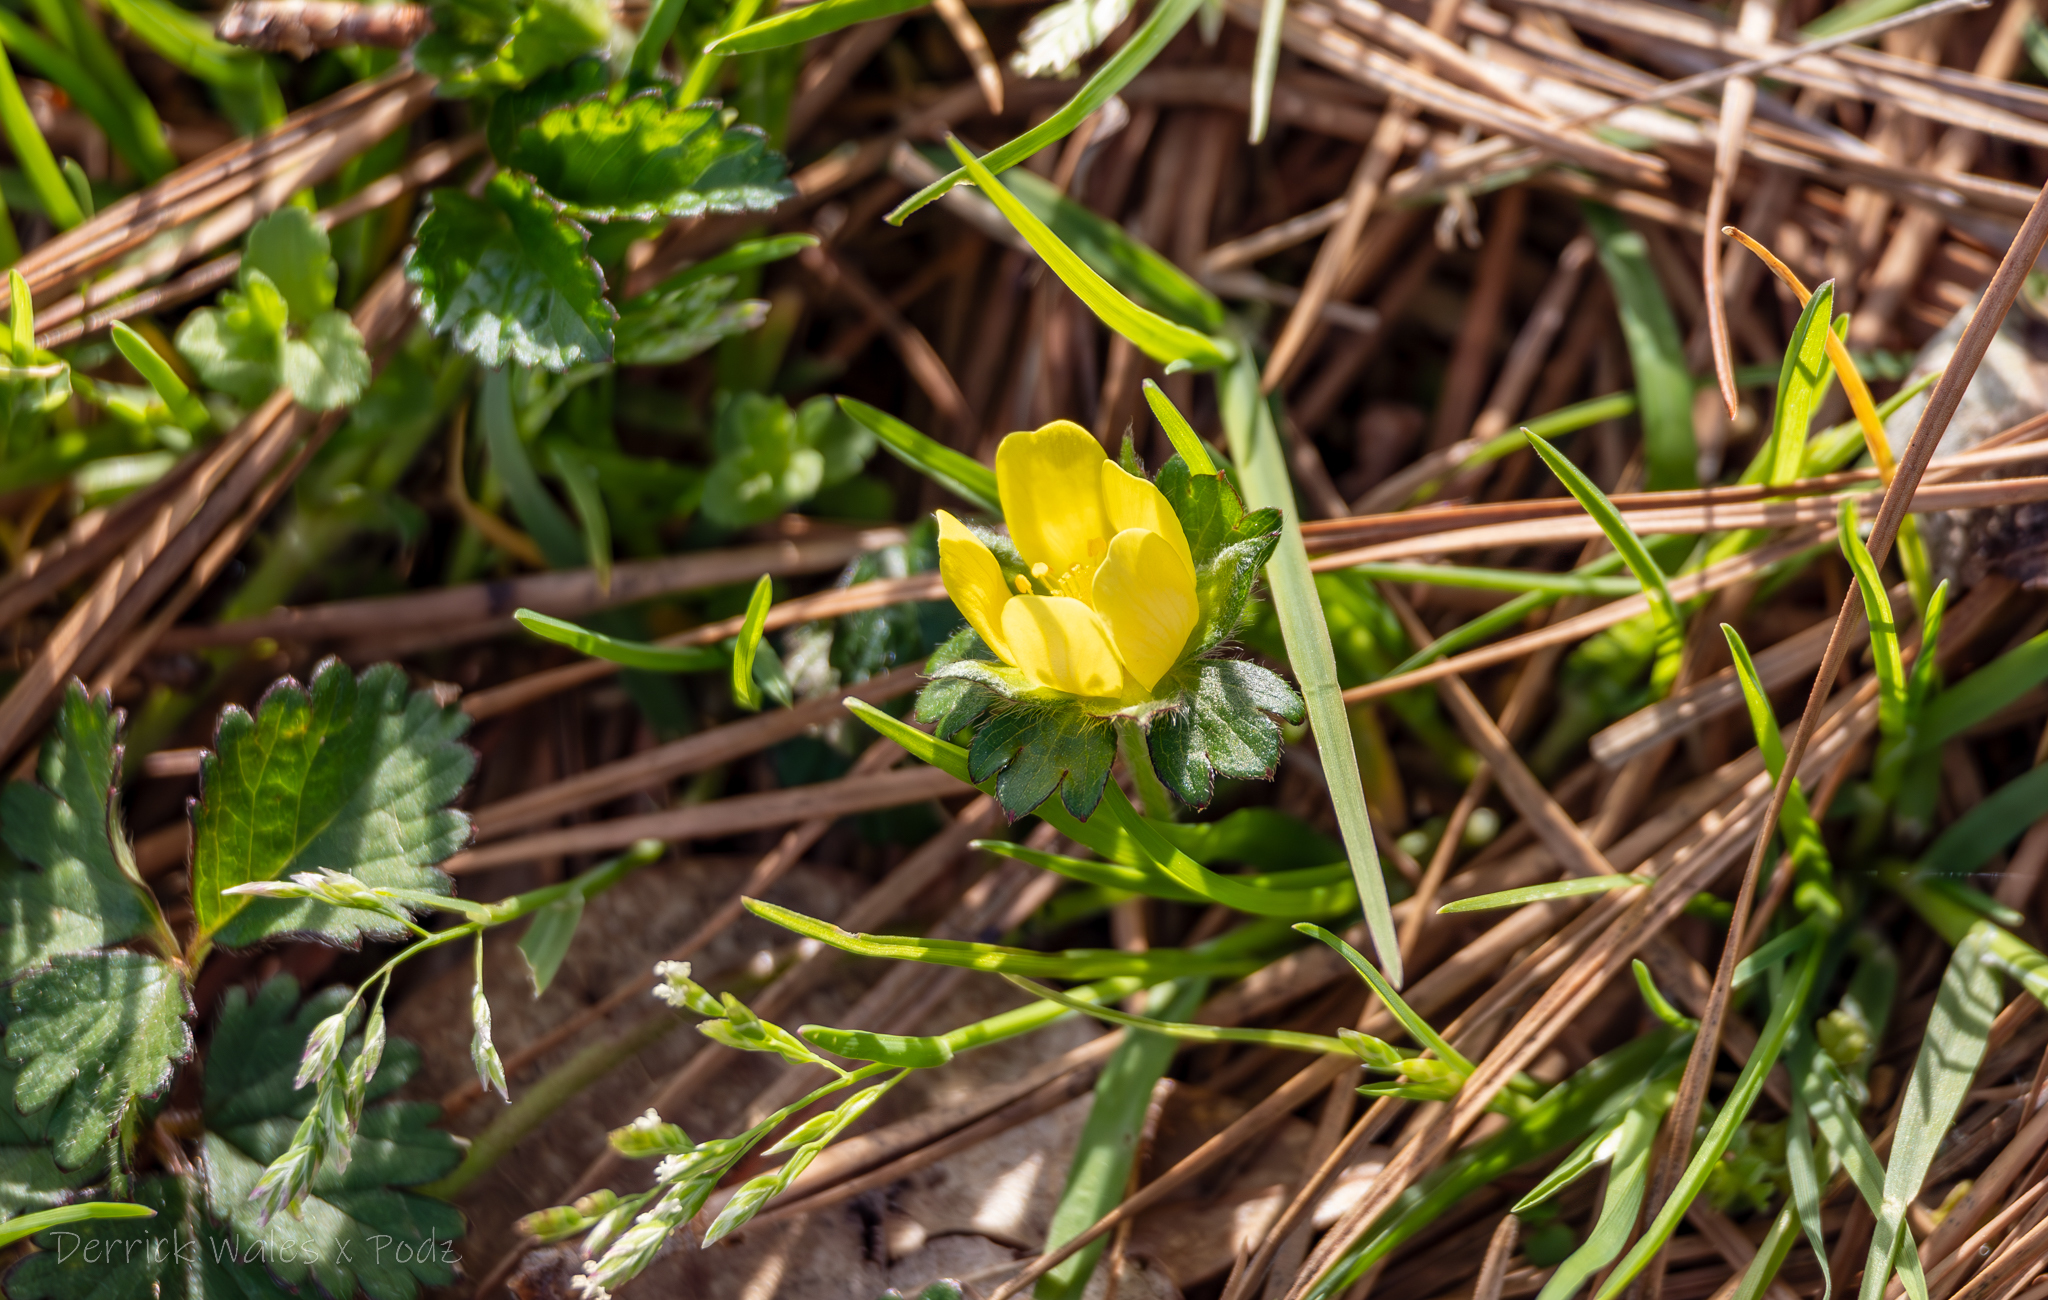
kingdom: Plantae
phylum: Tracheophyta
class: Magnoliopsida
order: Rosales
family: Rosaceae
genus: Potentilla
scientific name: Potentilla indica
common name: Yellow-flowered strawberry
